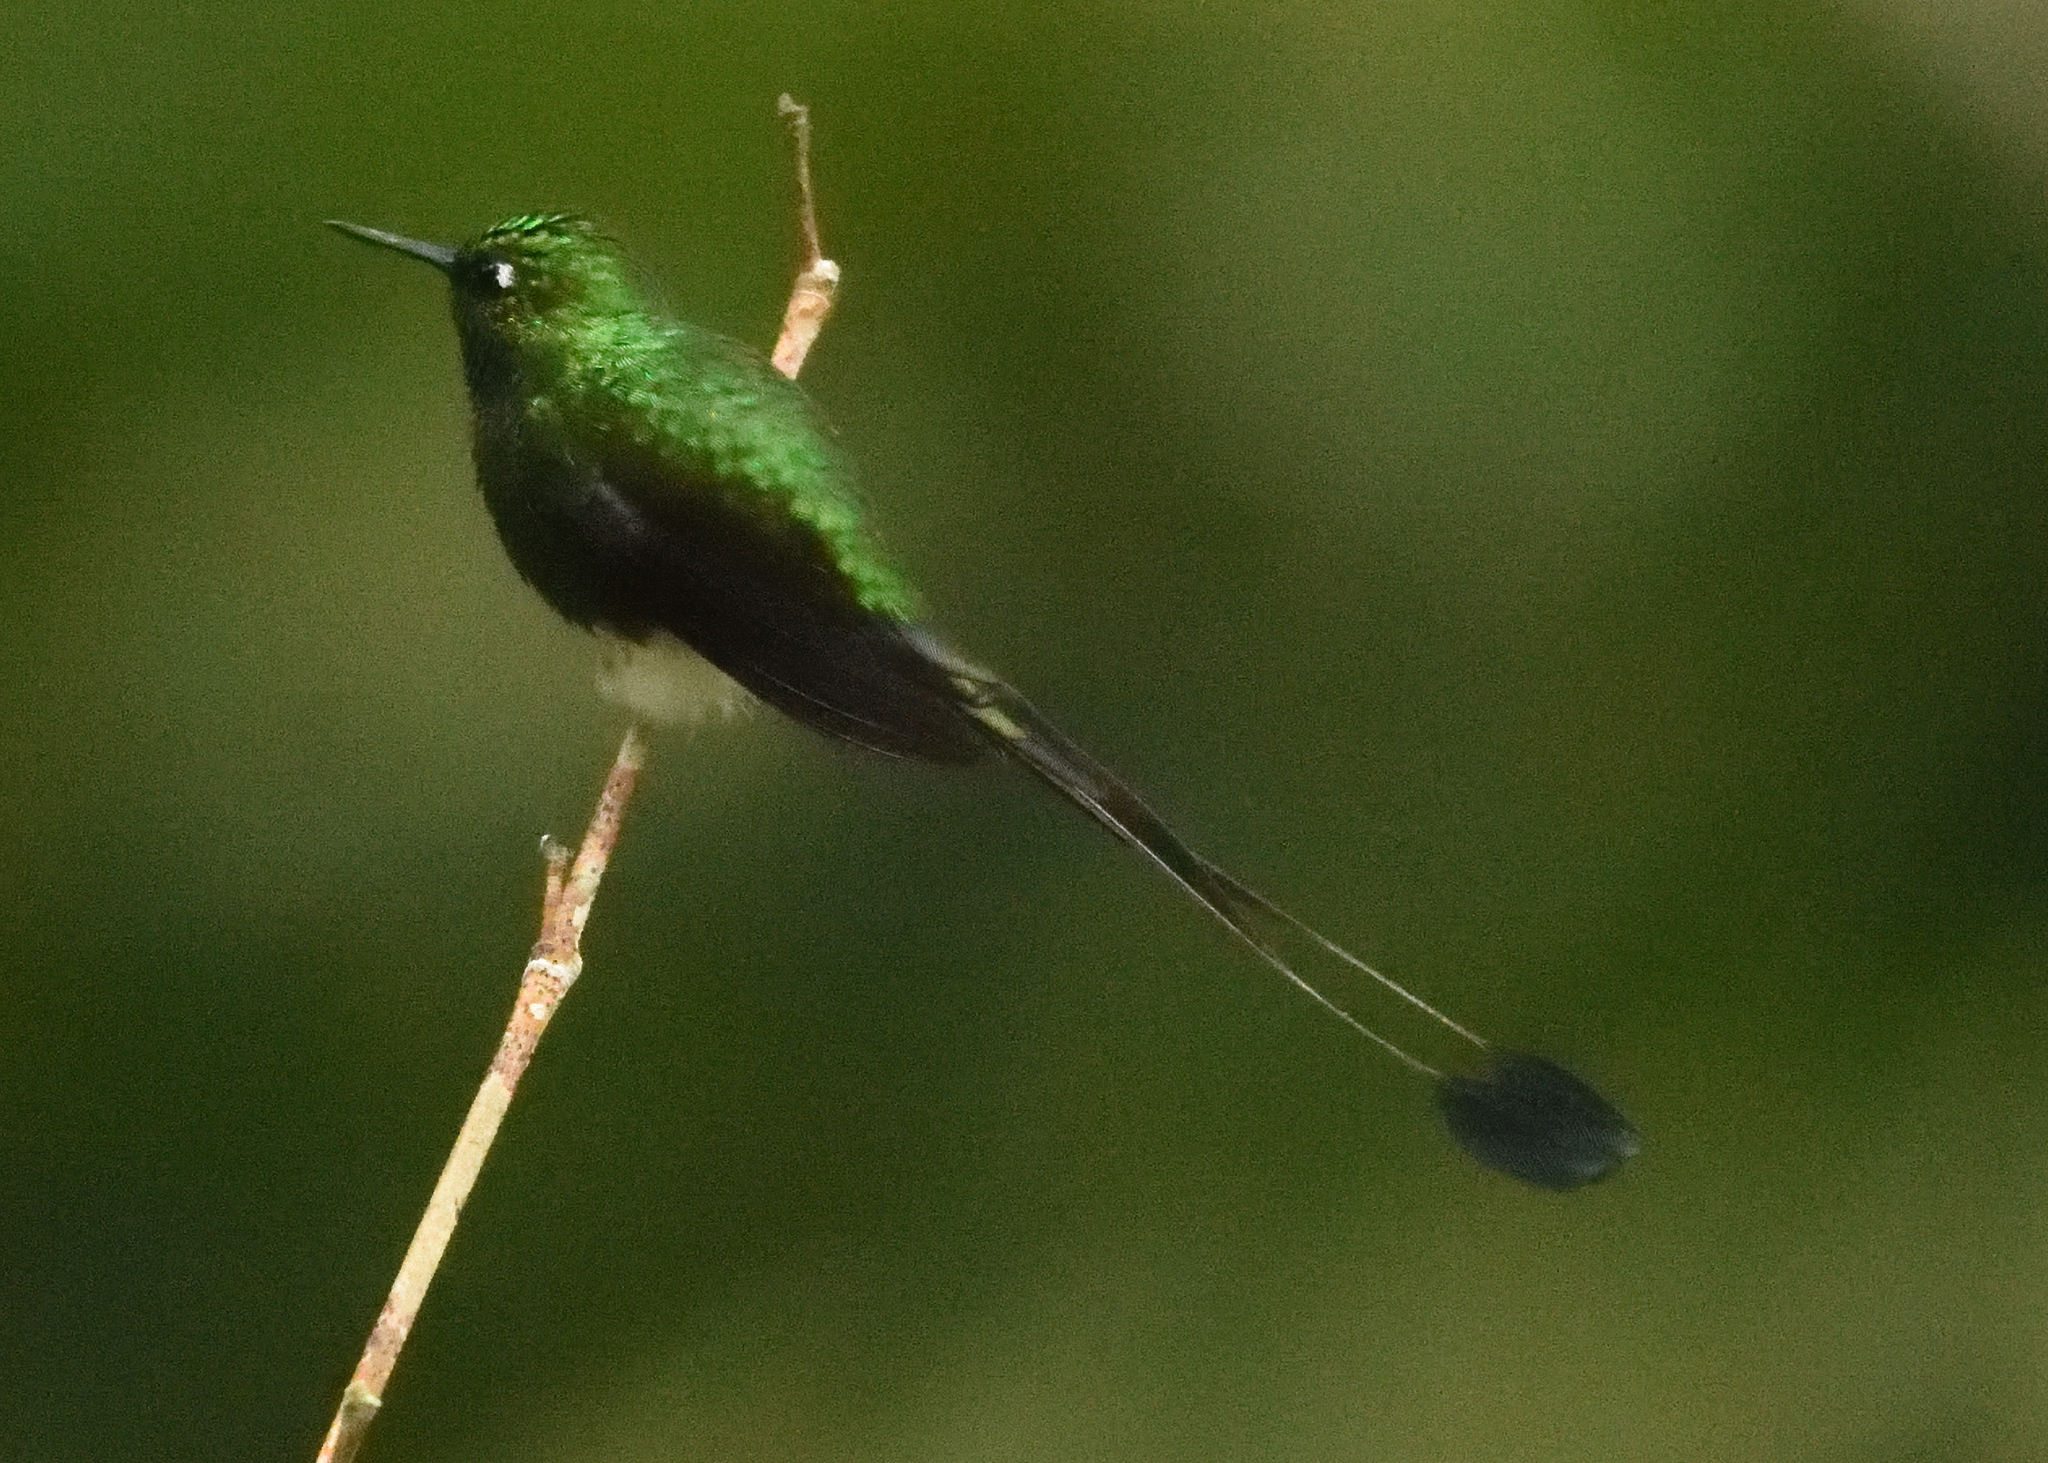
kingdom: Animalia
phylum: Chordata
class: Aves
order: Apodiformes
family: Trochilidae
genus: Ocreatus
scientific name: Ocreatus underwoodii
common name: Booted racket-tail
